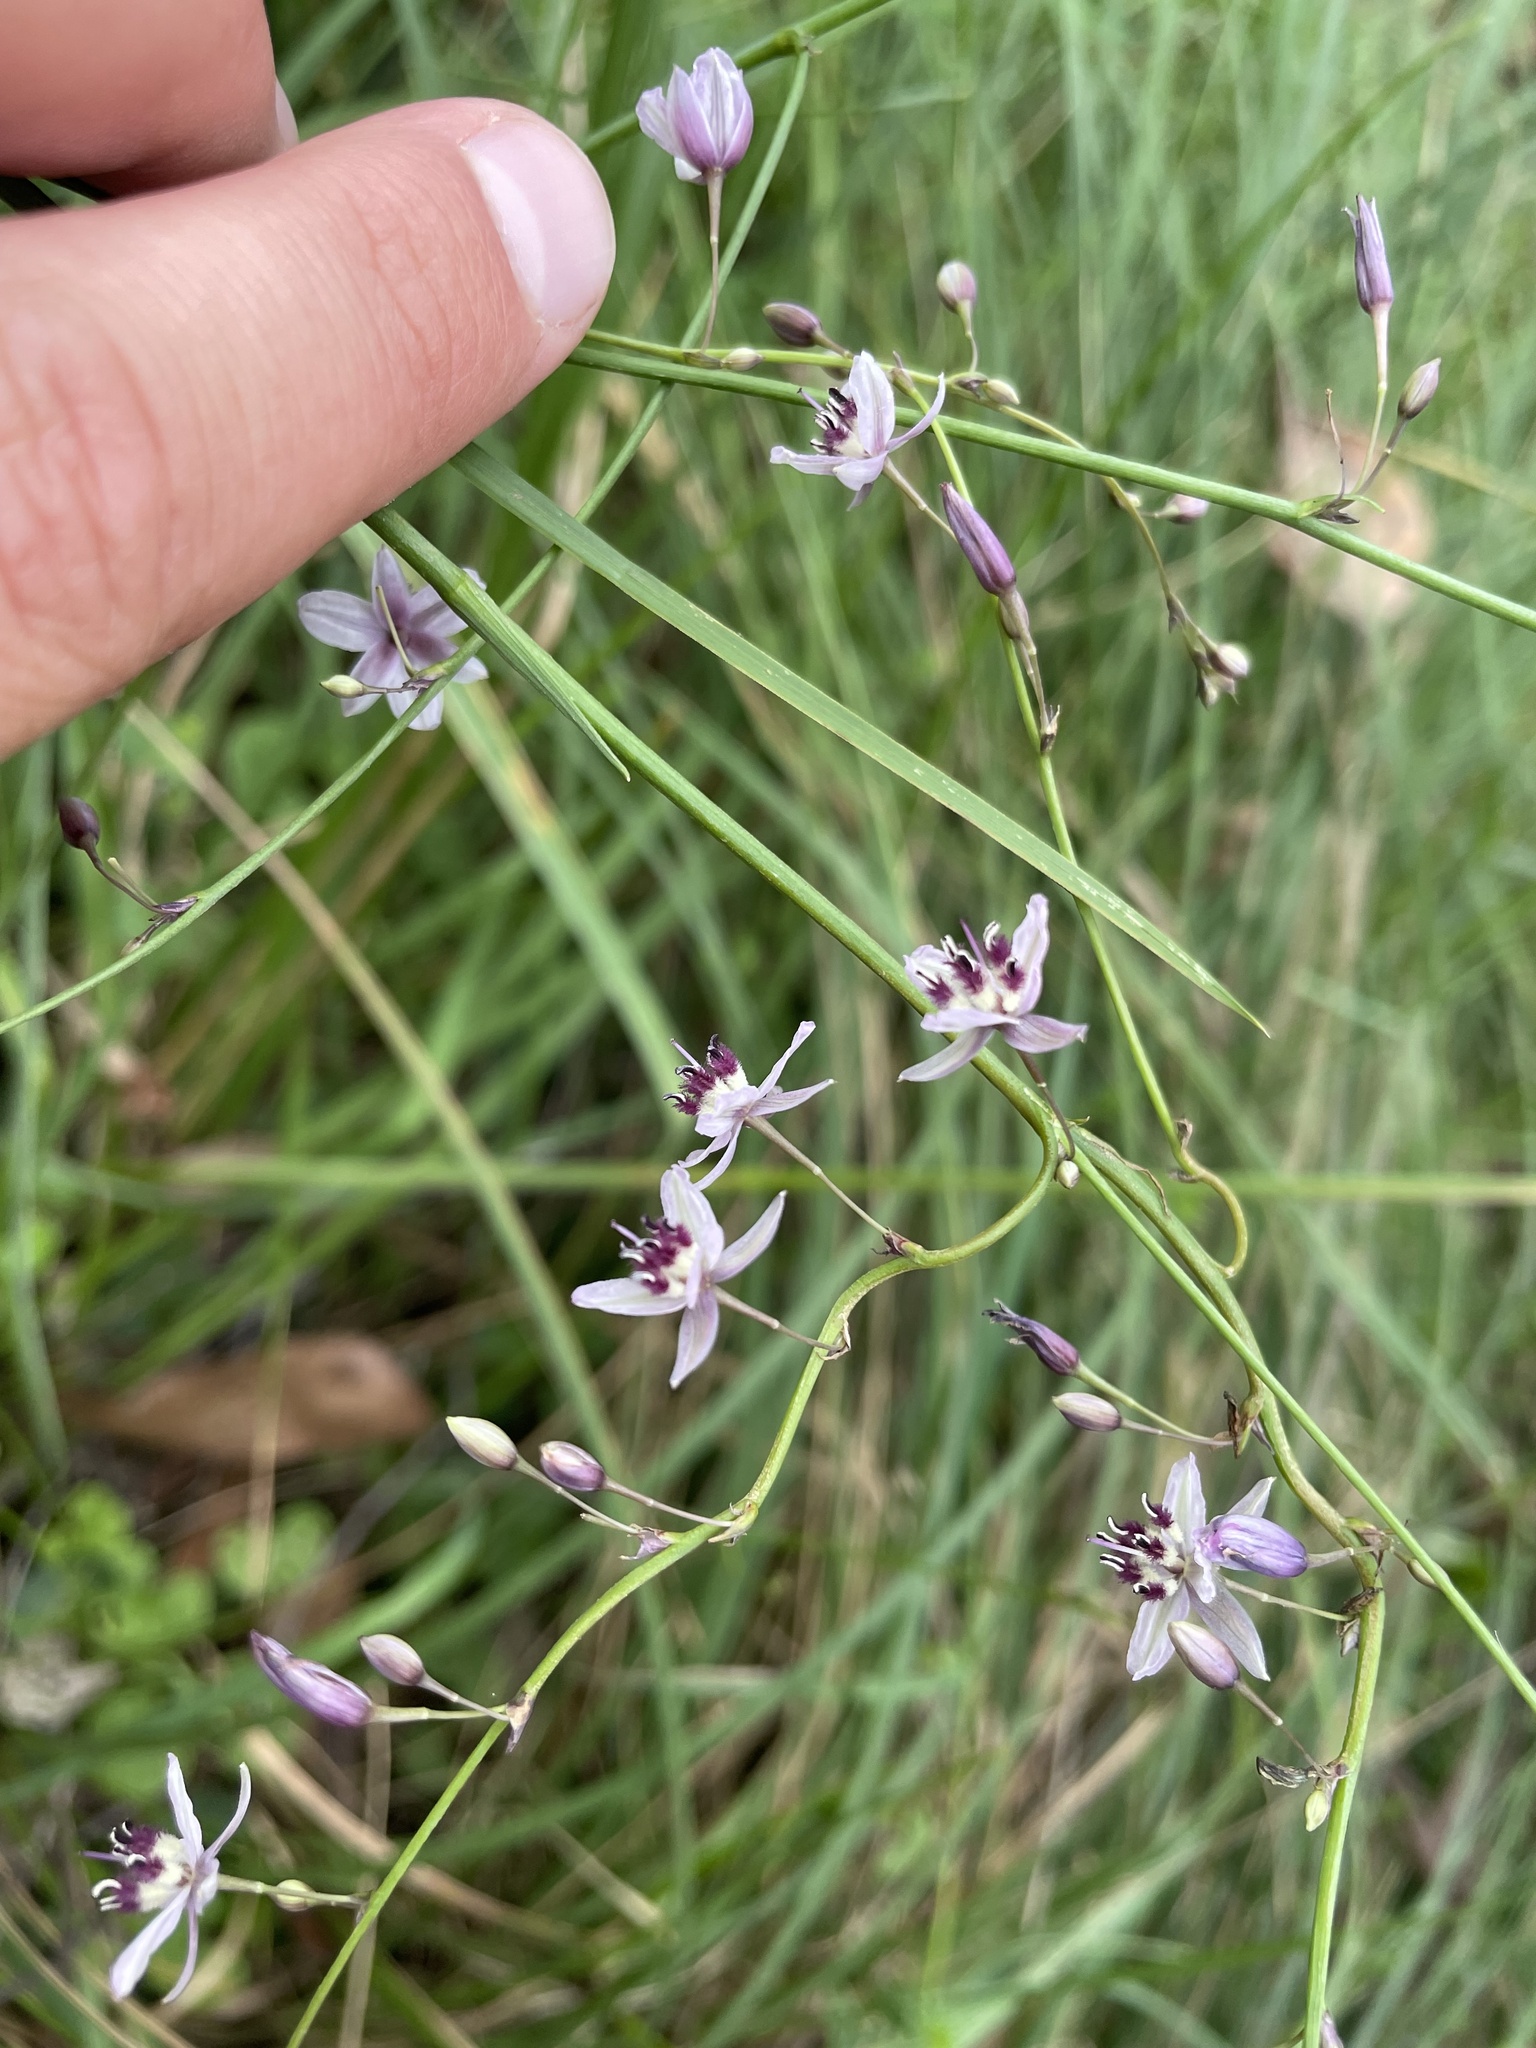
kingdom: Plantae
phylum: Tracheophyta
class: Liliopsida
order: Asparagales
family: Asparagaceae
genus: Arthropodium
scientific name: Arthropodium milleflorum
